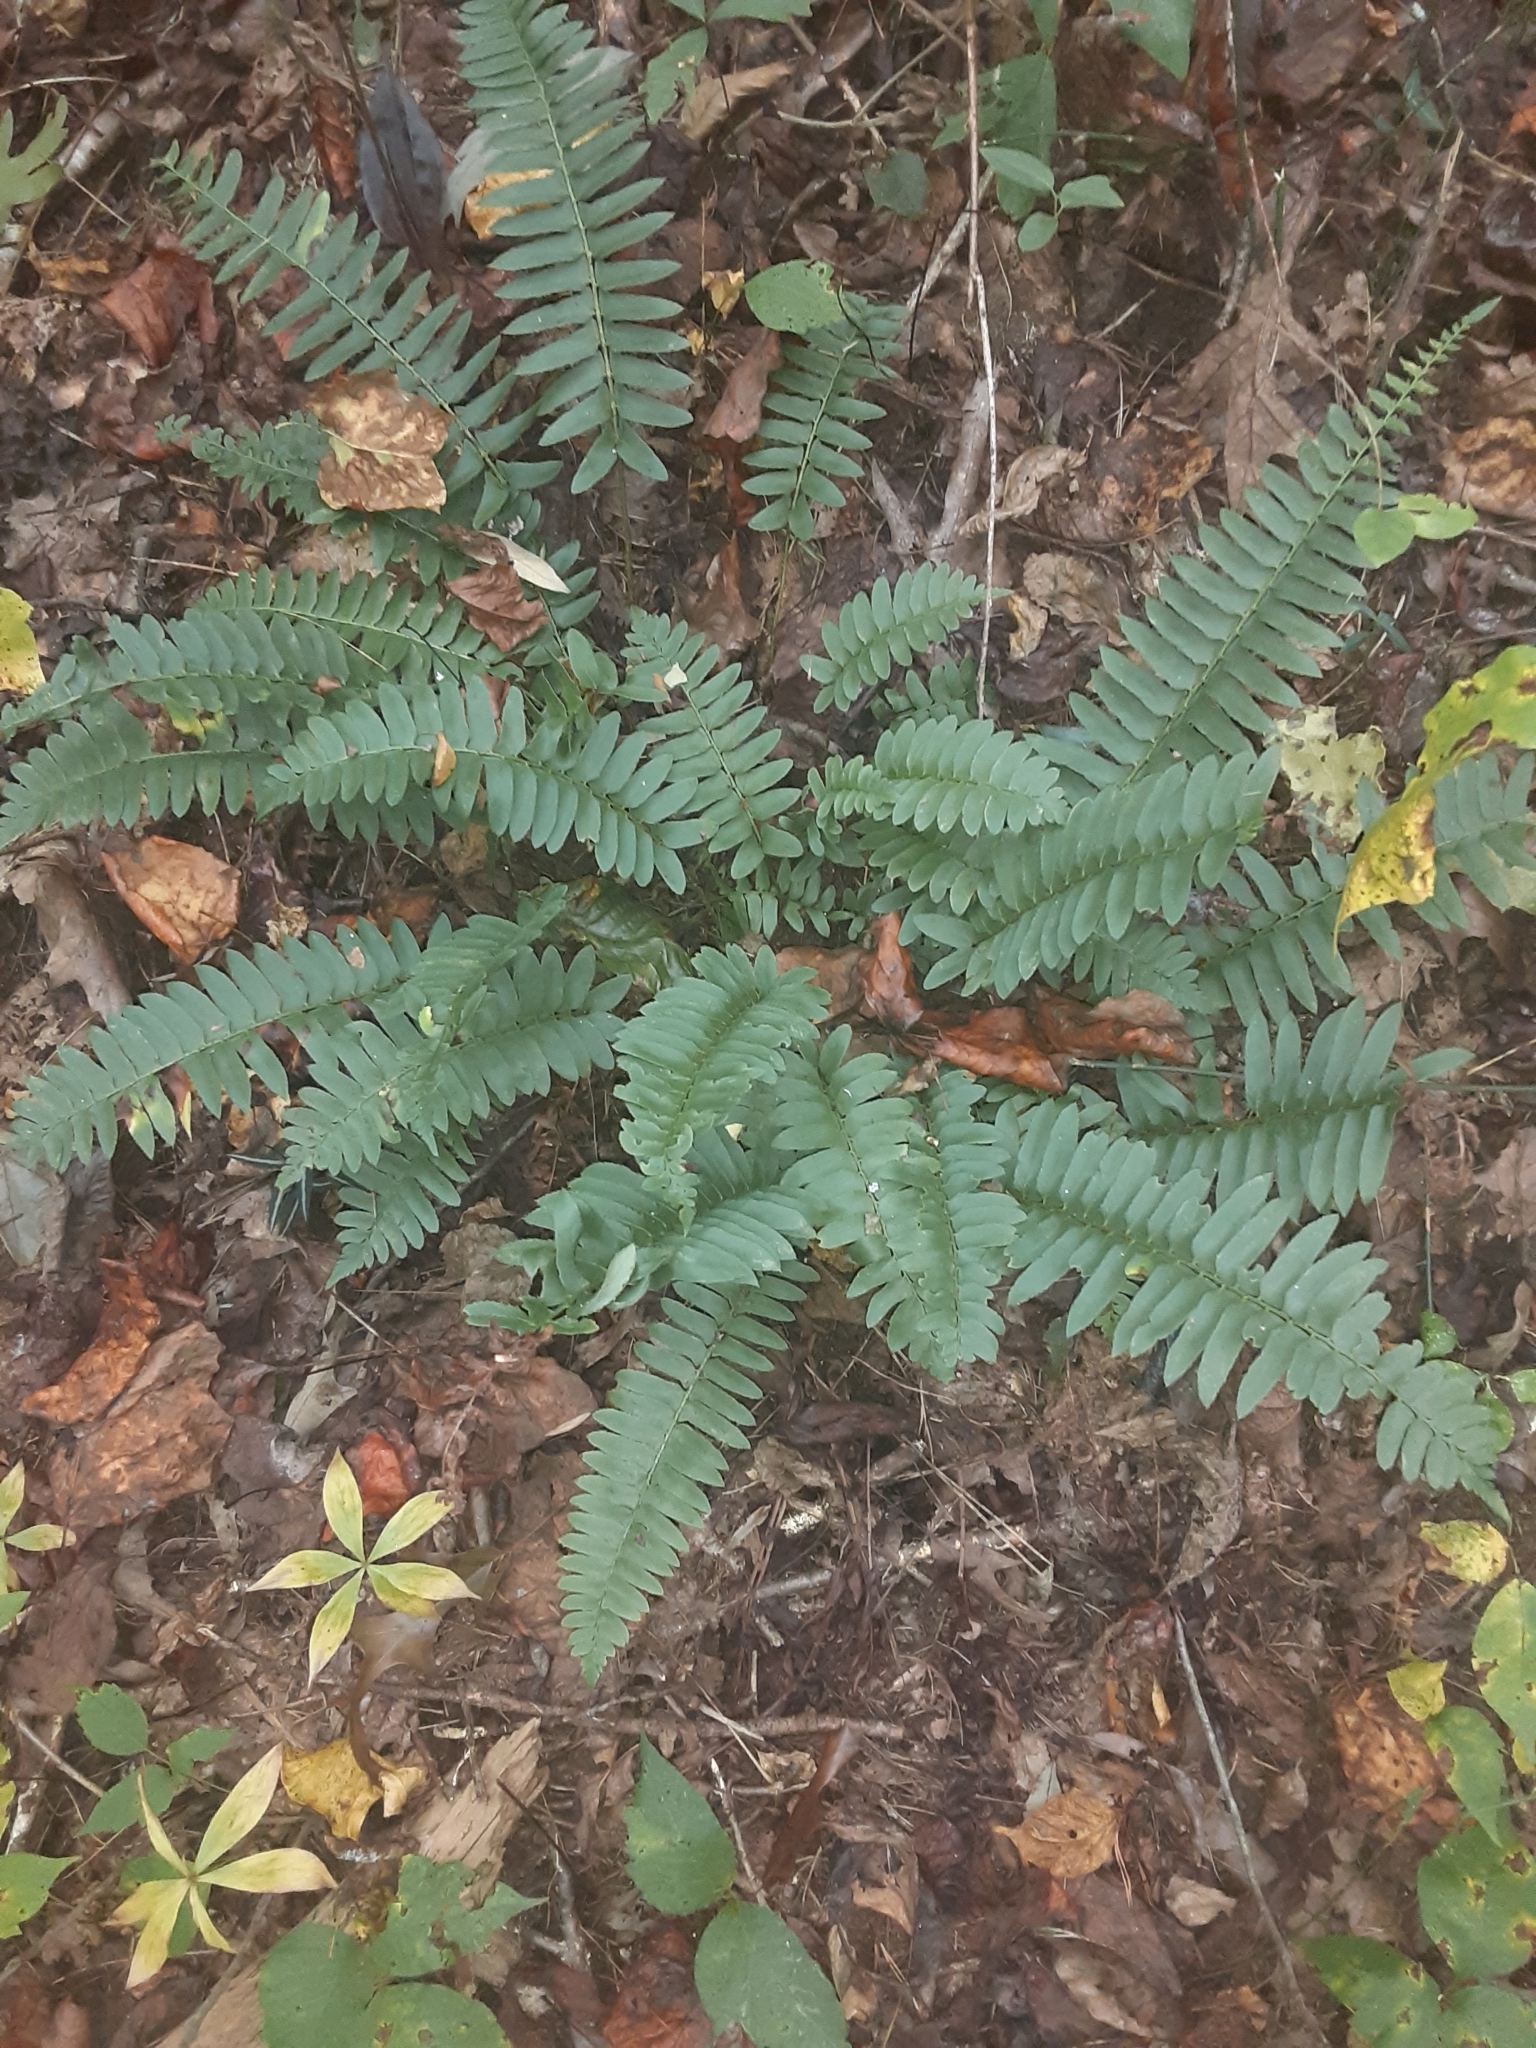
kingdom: Plantae
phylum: Tracheophyta
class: Polypodiopsida
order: Polypodiales
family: Dryopteridaceae
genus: Polystichum
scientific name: Polystichum acrostichoides
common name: Christmas fern
